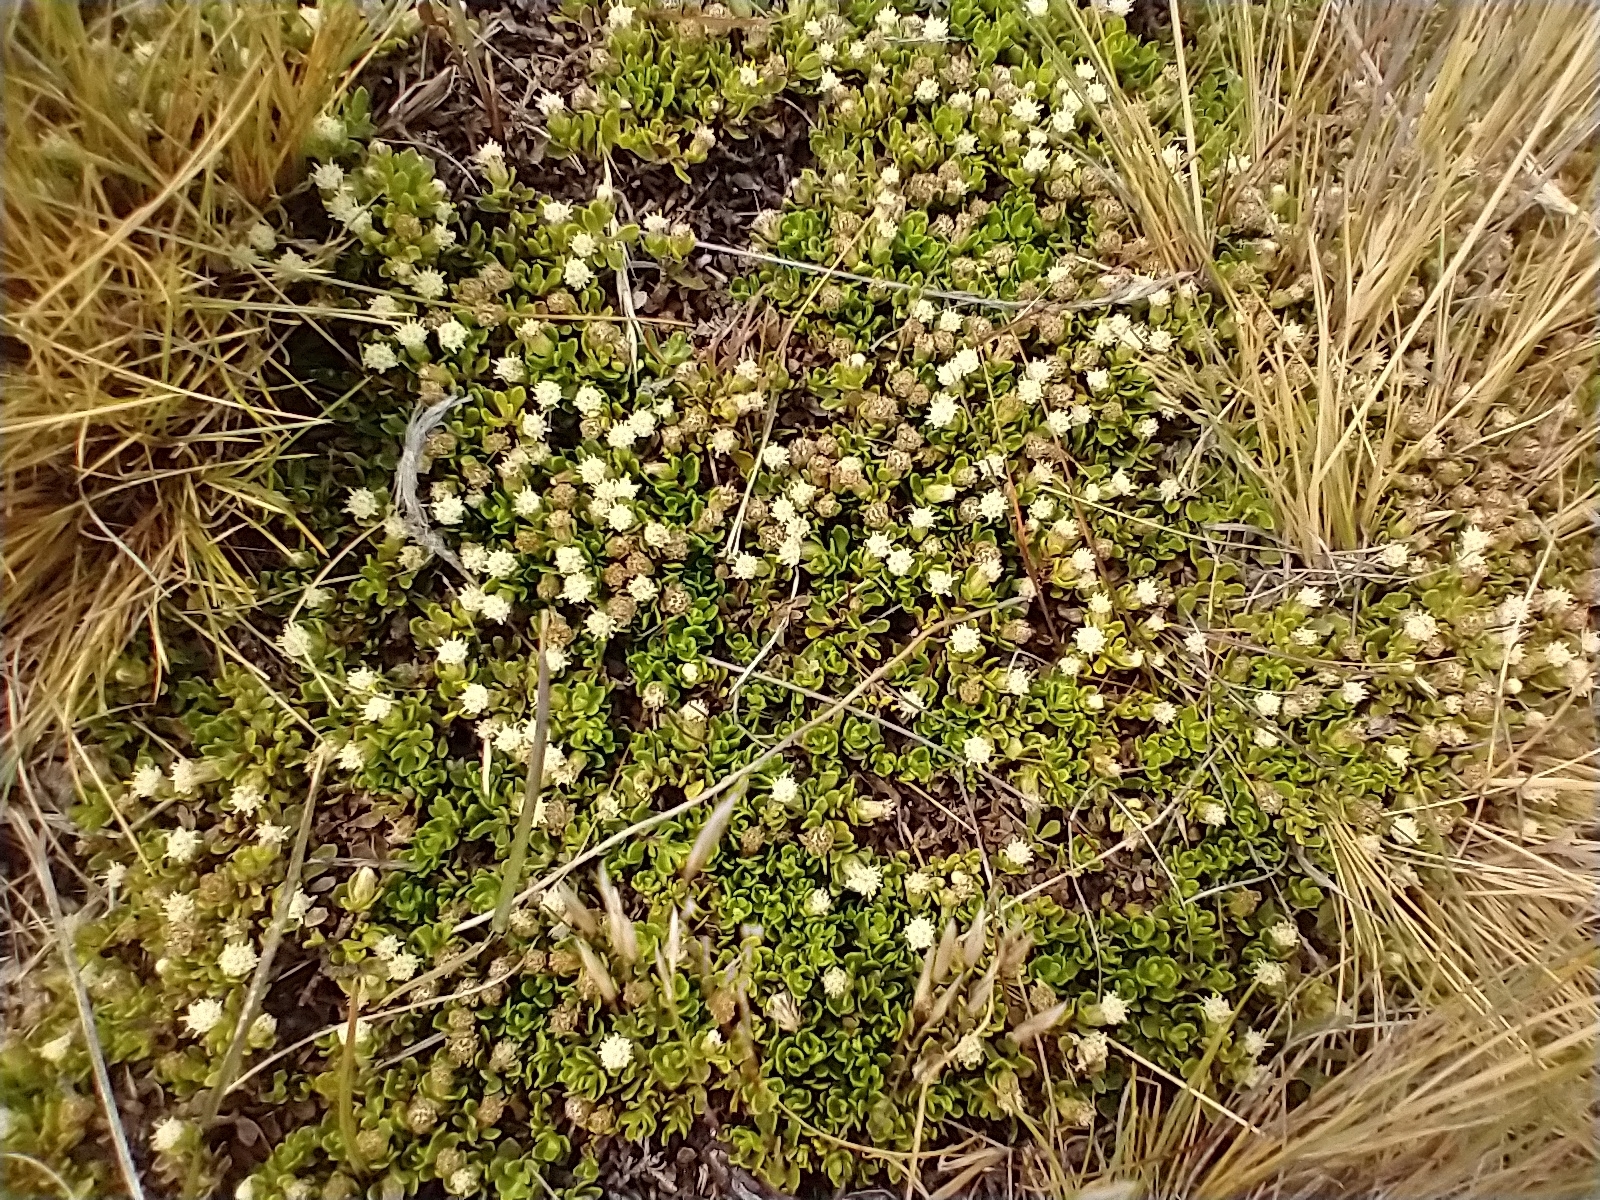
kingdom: Plantae
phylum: Tracheophyta
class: Magnoliopsida
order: Asterales
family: Asteraceae
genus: Baccharis
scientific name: Baccharis magellanica
